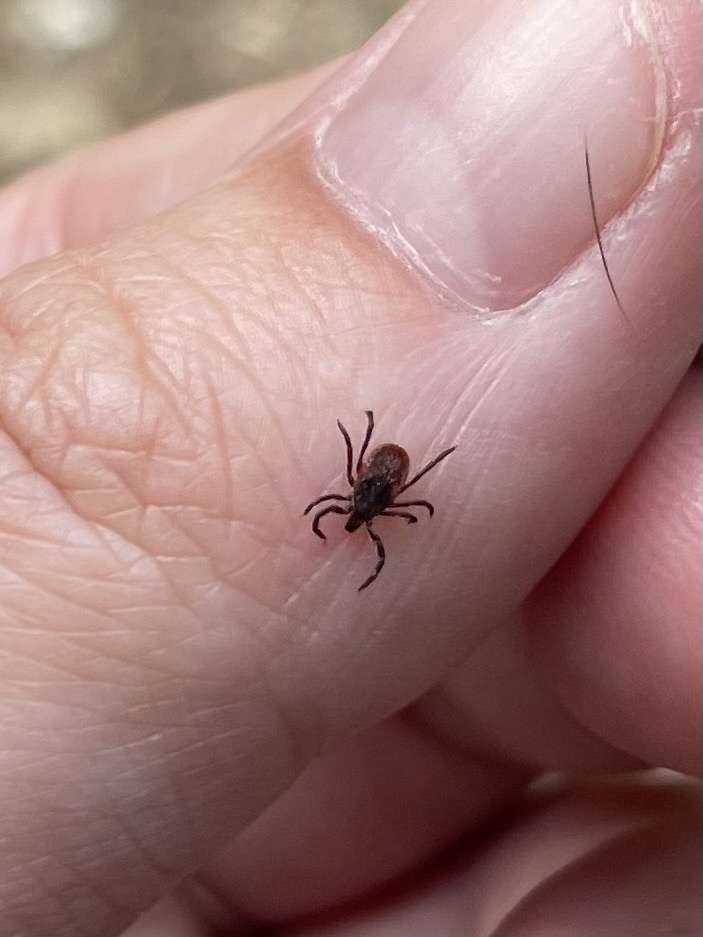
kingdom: Animalia
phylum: Arthropoda
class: Arachnida
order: Ixodida
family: Ixodidae
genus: Ixodes
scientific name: Ixodes pacificus
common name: California black-legged tick
